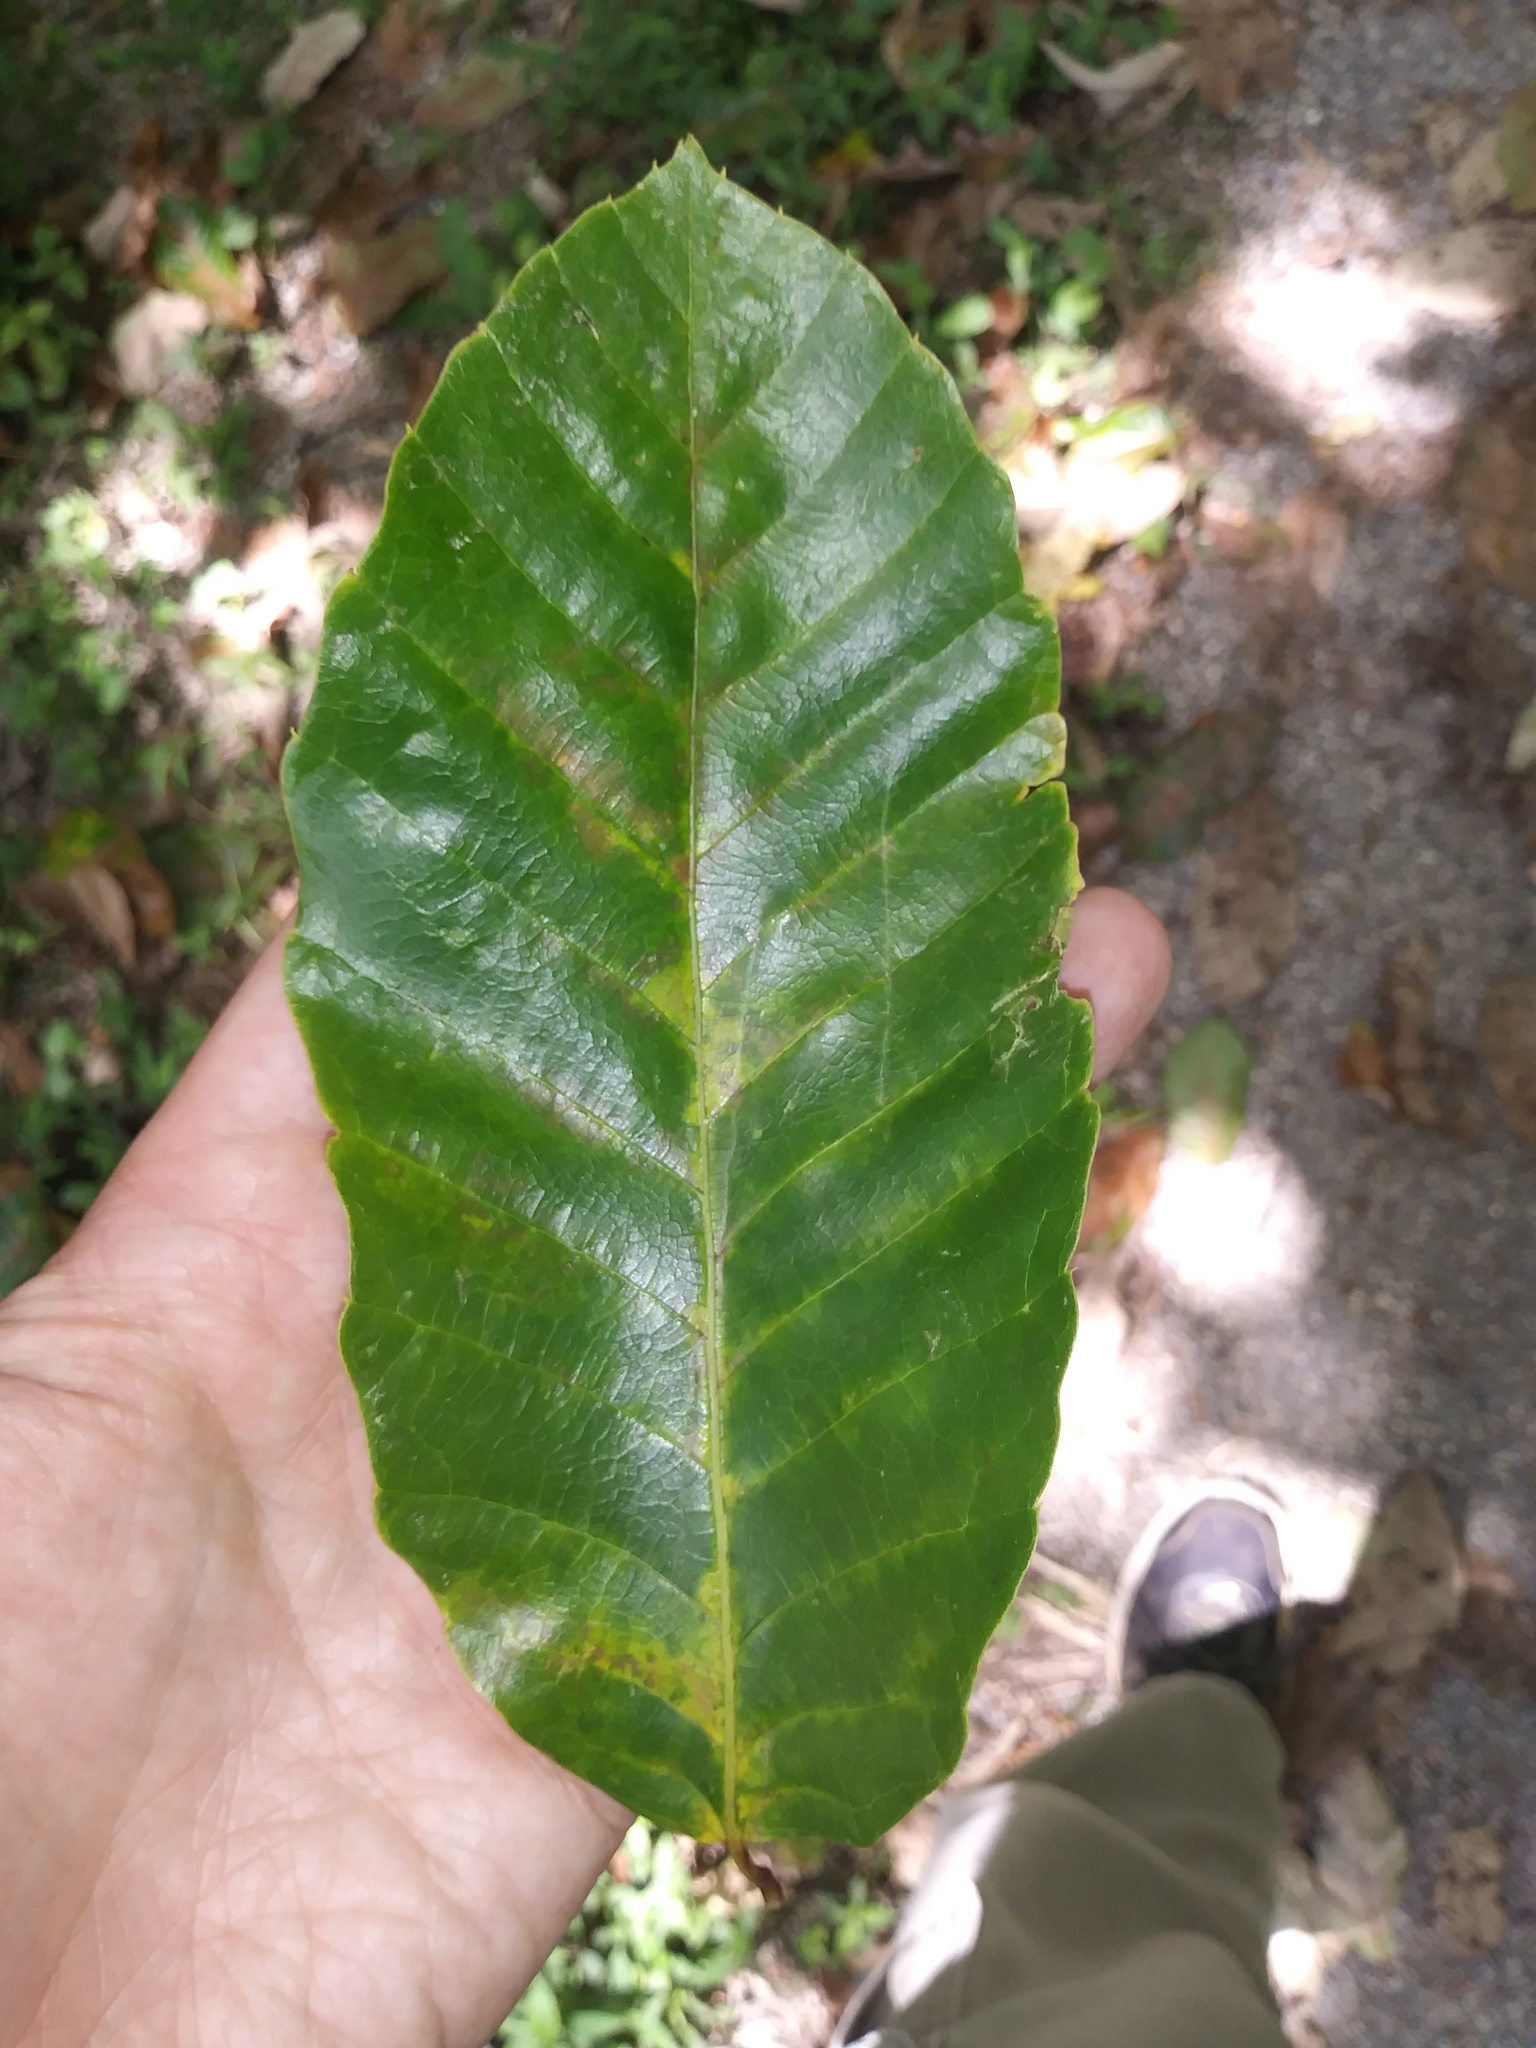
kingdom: Plantae
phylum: Tracheophyta
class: Magnoliopsida
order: Fagales
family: Fagaceae
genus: Castanea
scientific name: Castanea mollissima
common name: Chinese chestnut
